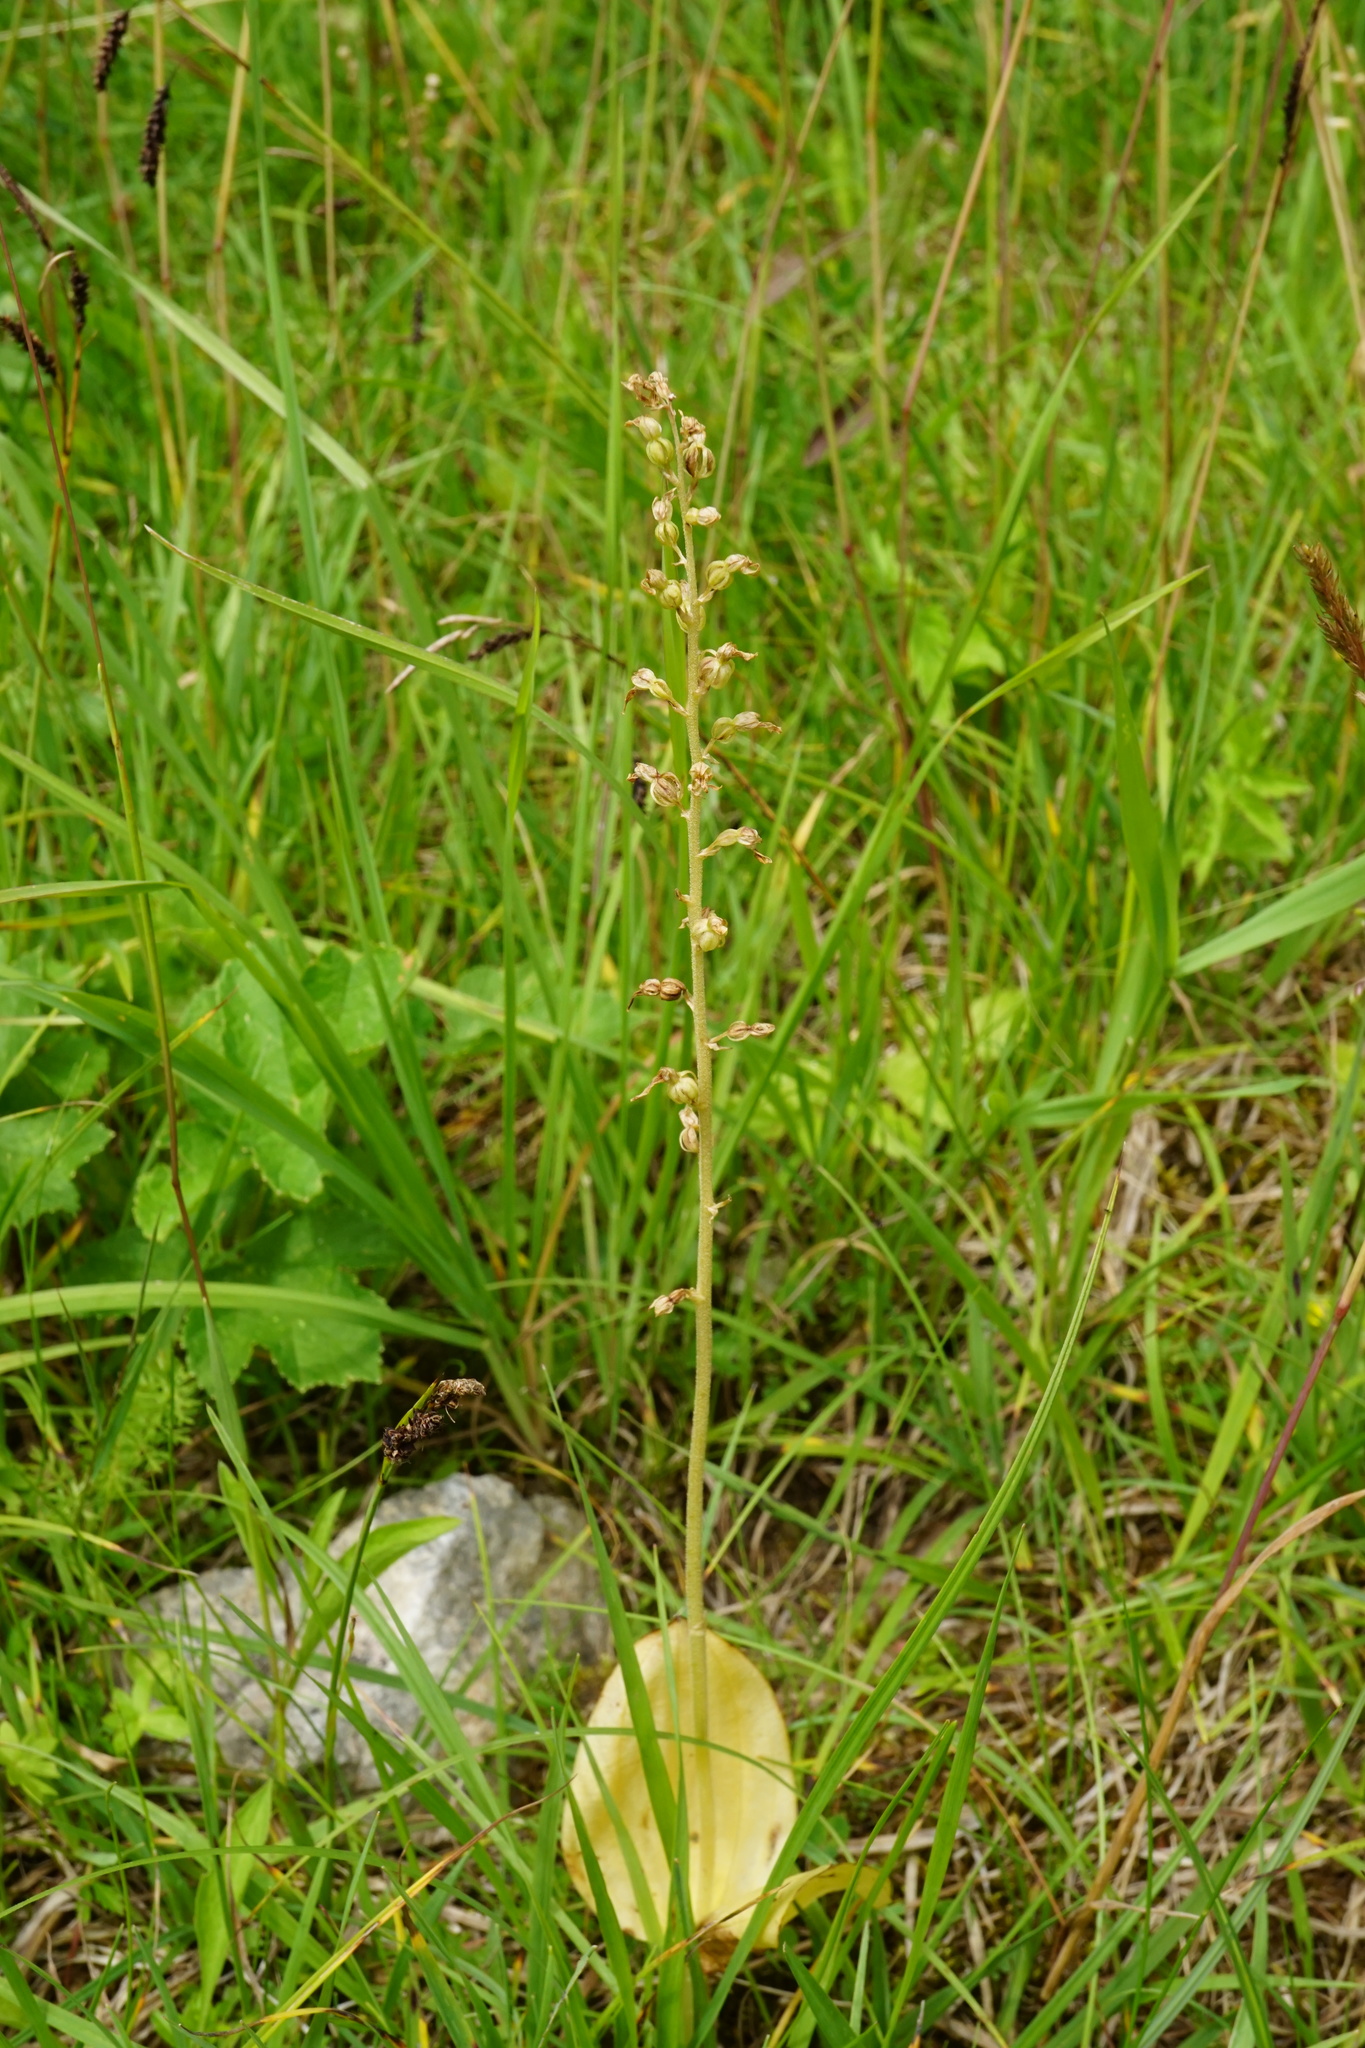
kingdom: Plantae
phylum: Tracheophyta
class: Liliopsida
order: Asparagales
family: Orchidaceae
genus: Neottia
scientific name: Neottia ovata
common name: Common twayblade
